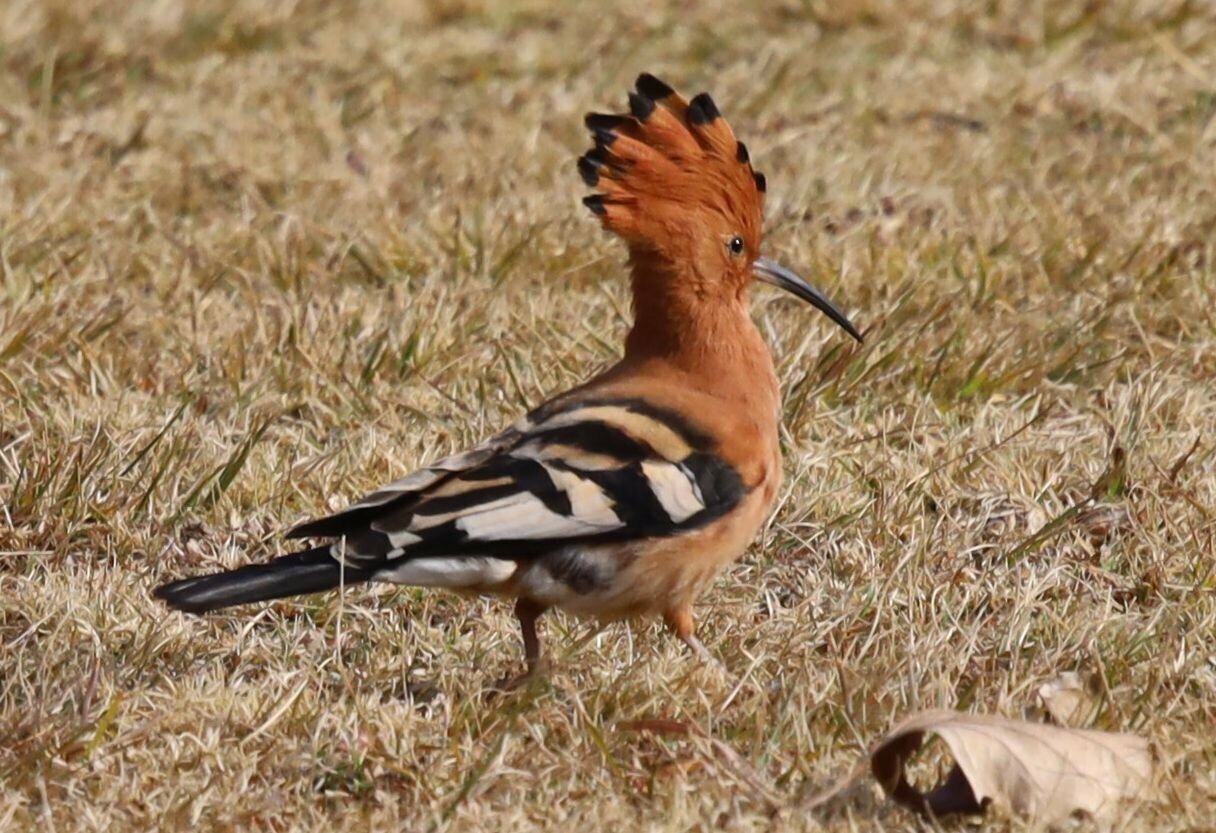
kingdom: Animalia
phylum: Chordata
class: Aves
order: Bucerotiformes
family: Upupidae
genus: Upupa
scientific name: Upupa africana
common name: African hoopoe
